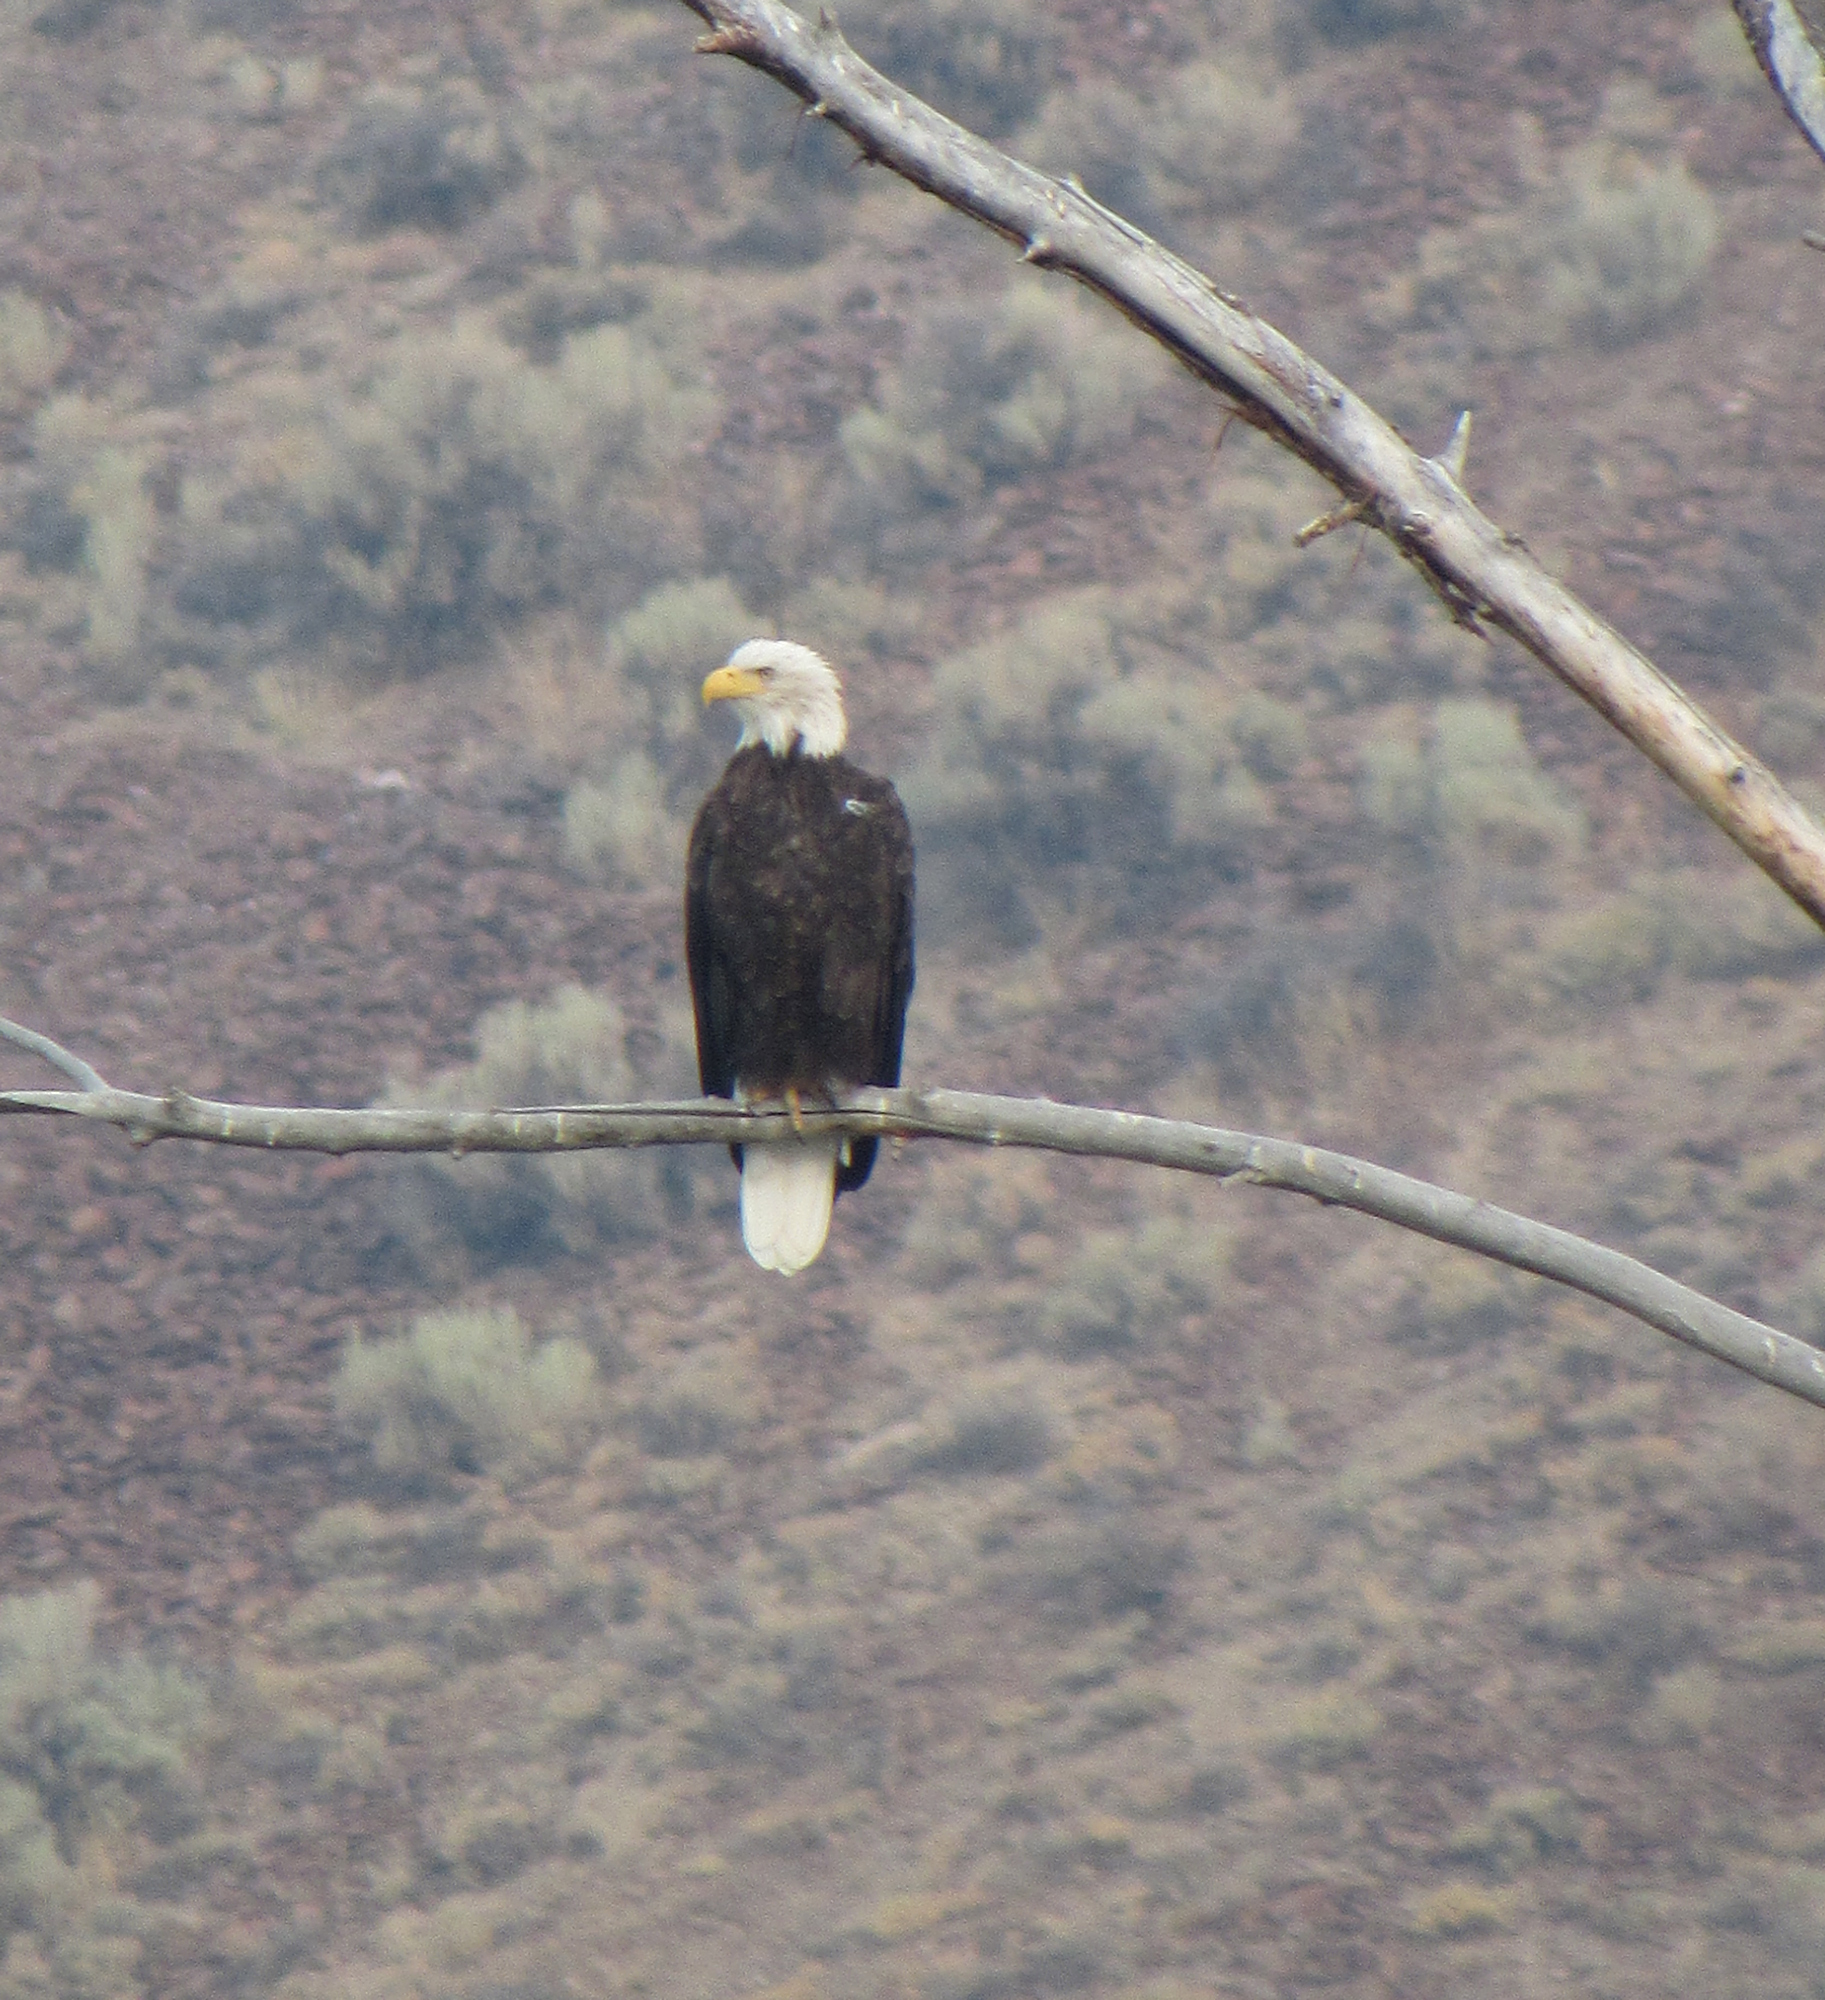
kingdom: Animalia
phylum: Chordata
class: Aves
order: Accipitriformes
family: Accipitridae
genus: Haliaeetus
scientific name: Haliaeetus leucocephalus
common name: Bald eagle
